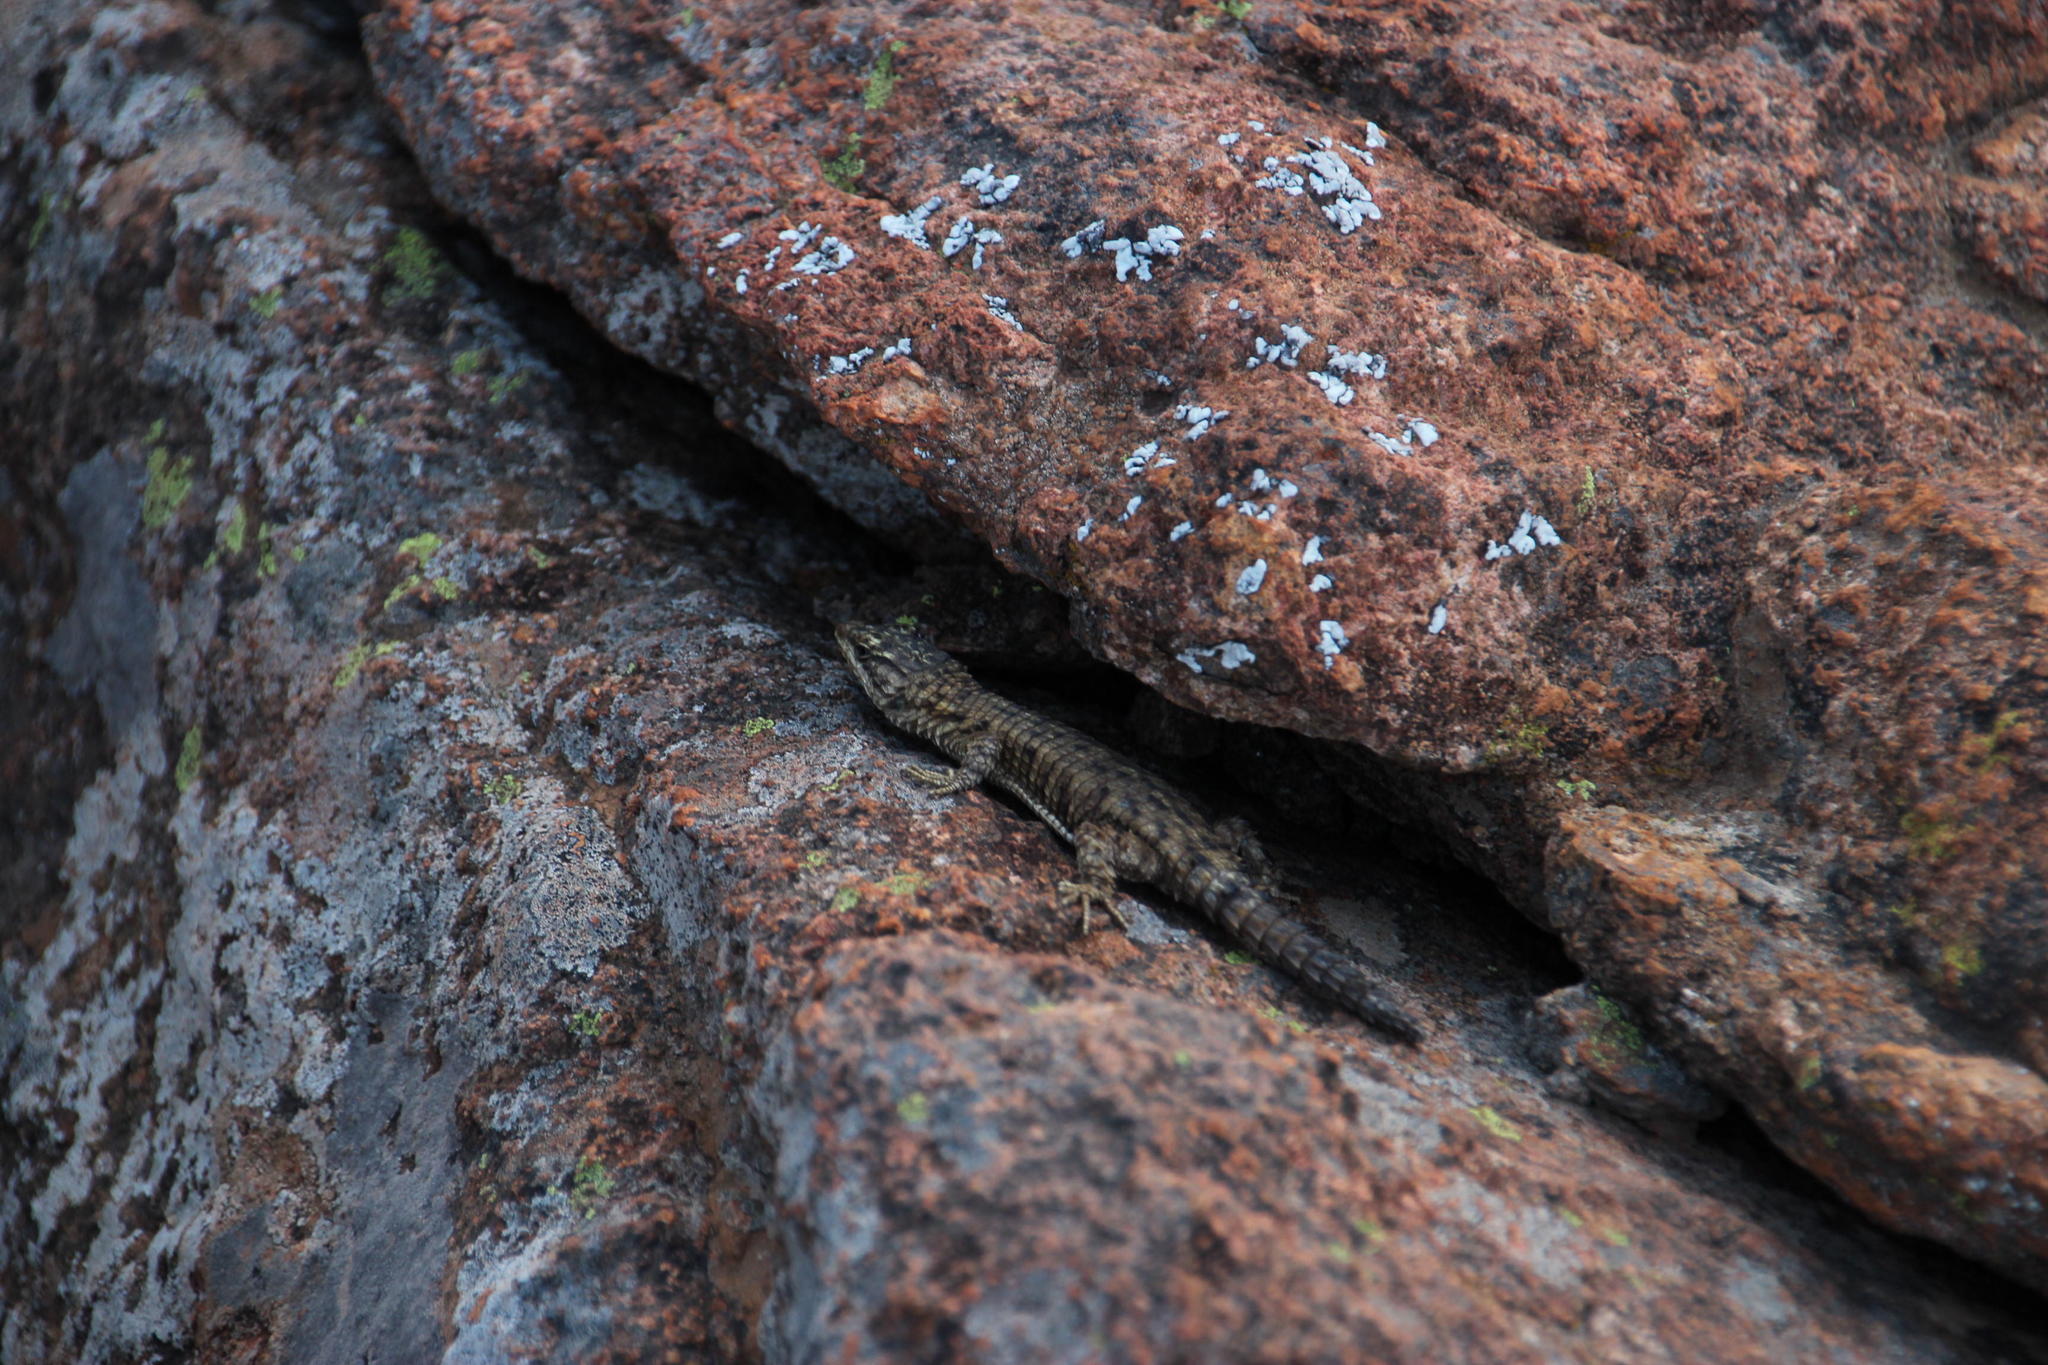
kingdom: Animalia
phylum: Chordata
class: Squamata
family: Cordylidae
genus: Cordylus
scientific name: Cordylus cordylus
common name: Cape girdled lizard
